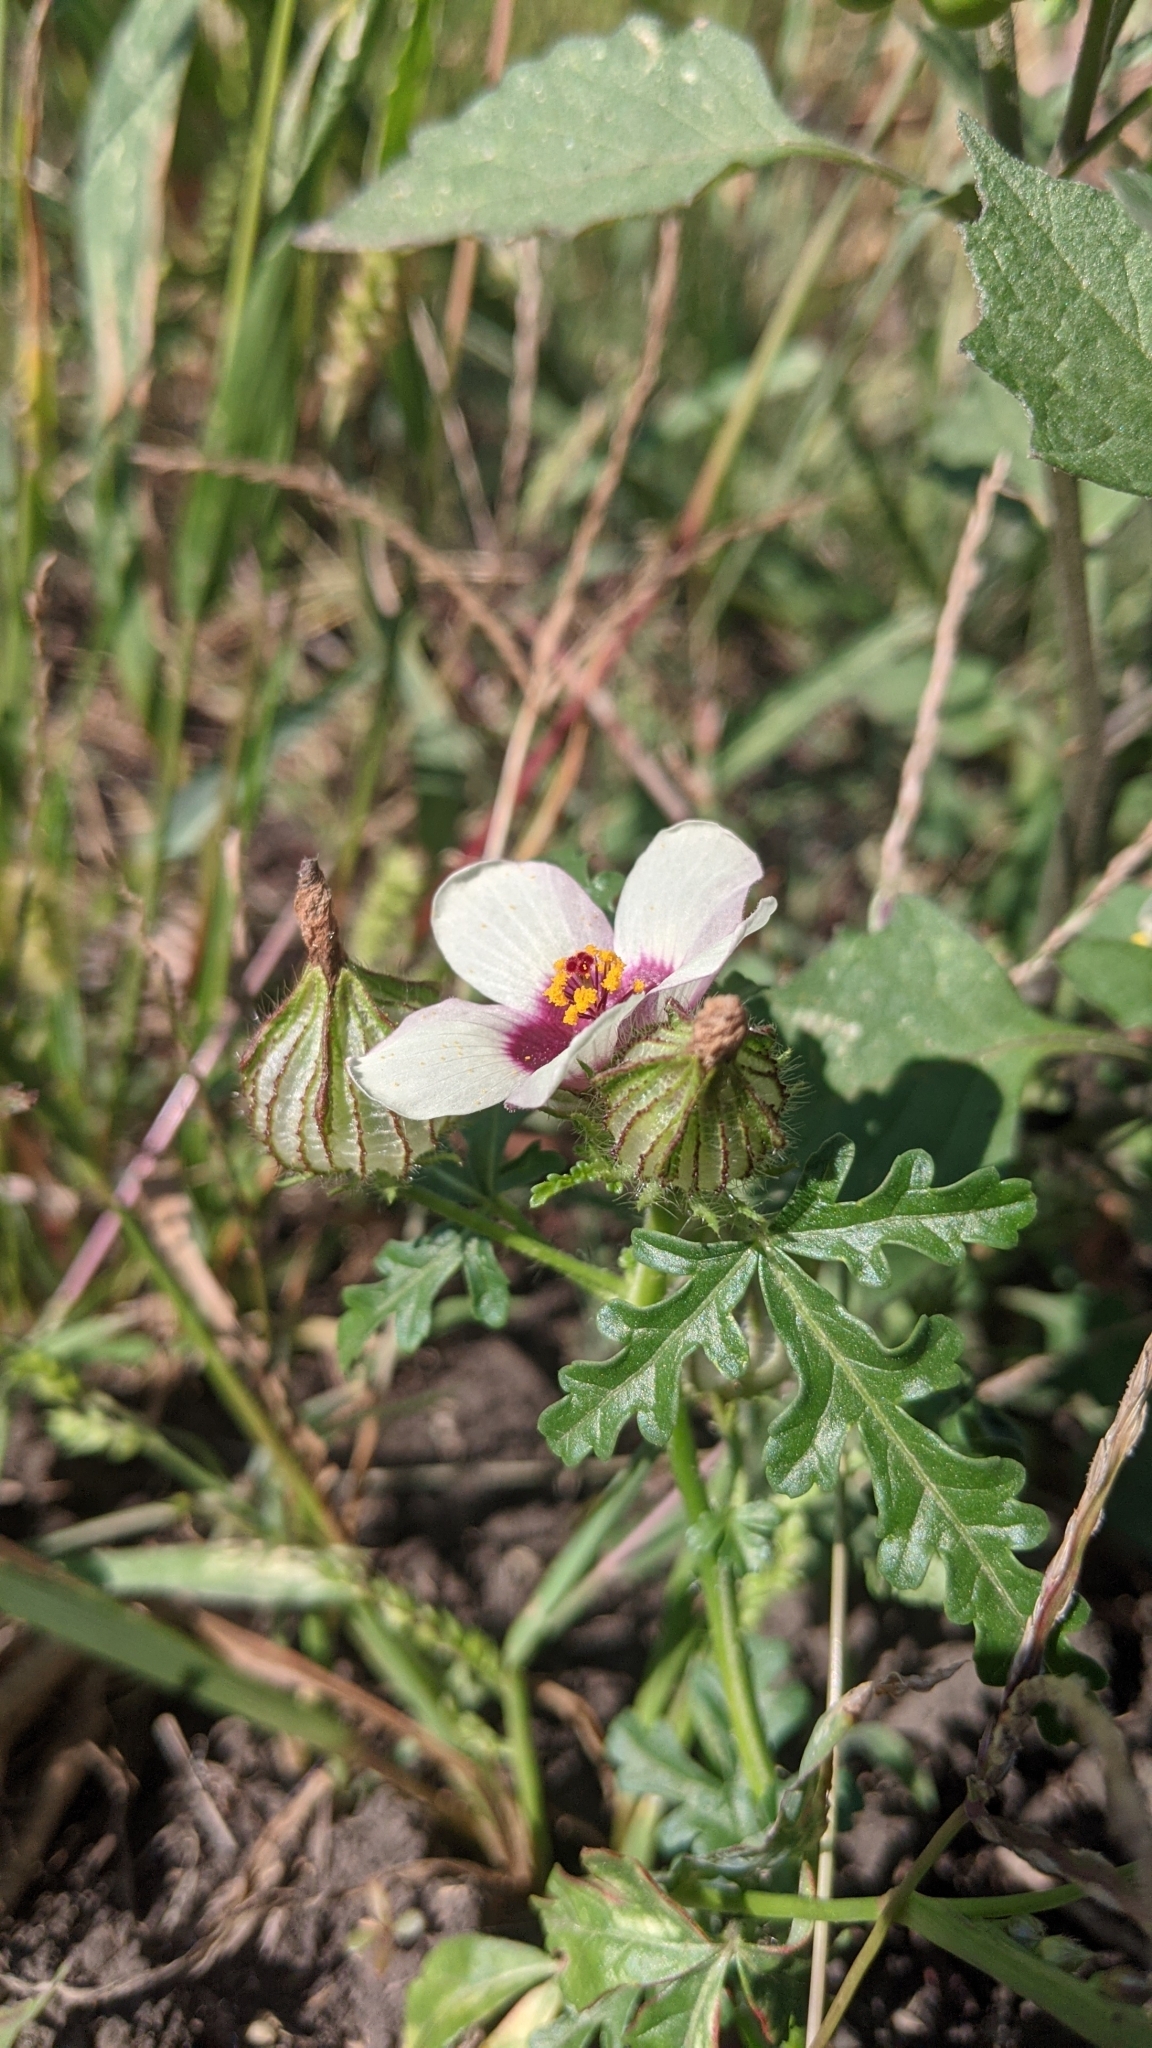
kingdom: Plantae
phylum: Tracheophyta
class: Magnoliopsida
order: Malvales
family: Malvaceae
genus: Hibiscus
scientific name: Hibiscus trionum
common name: Bladder ketmia
